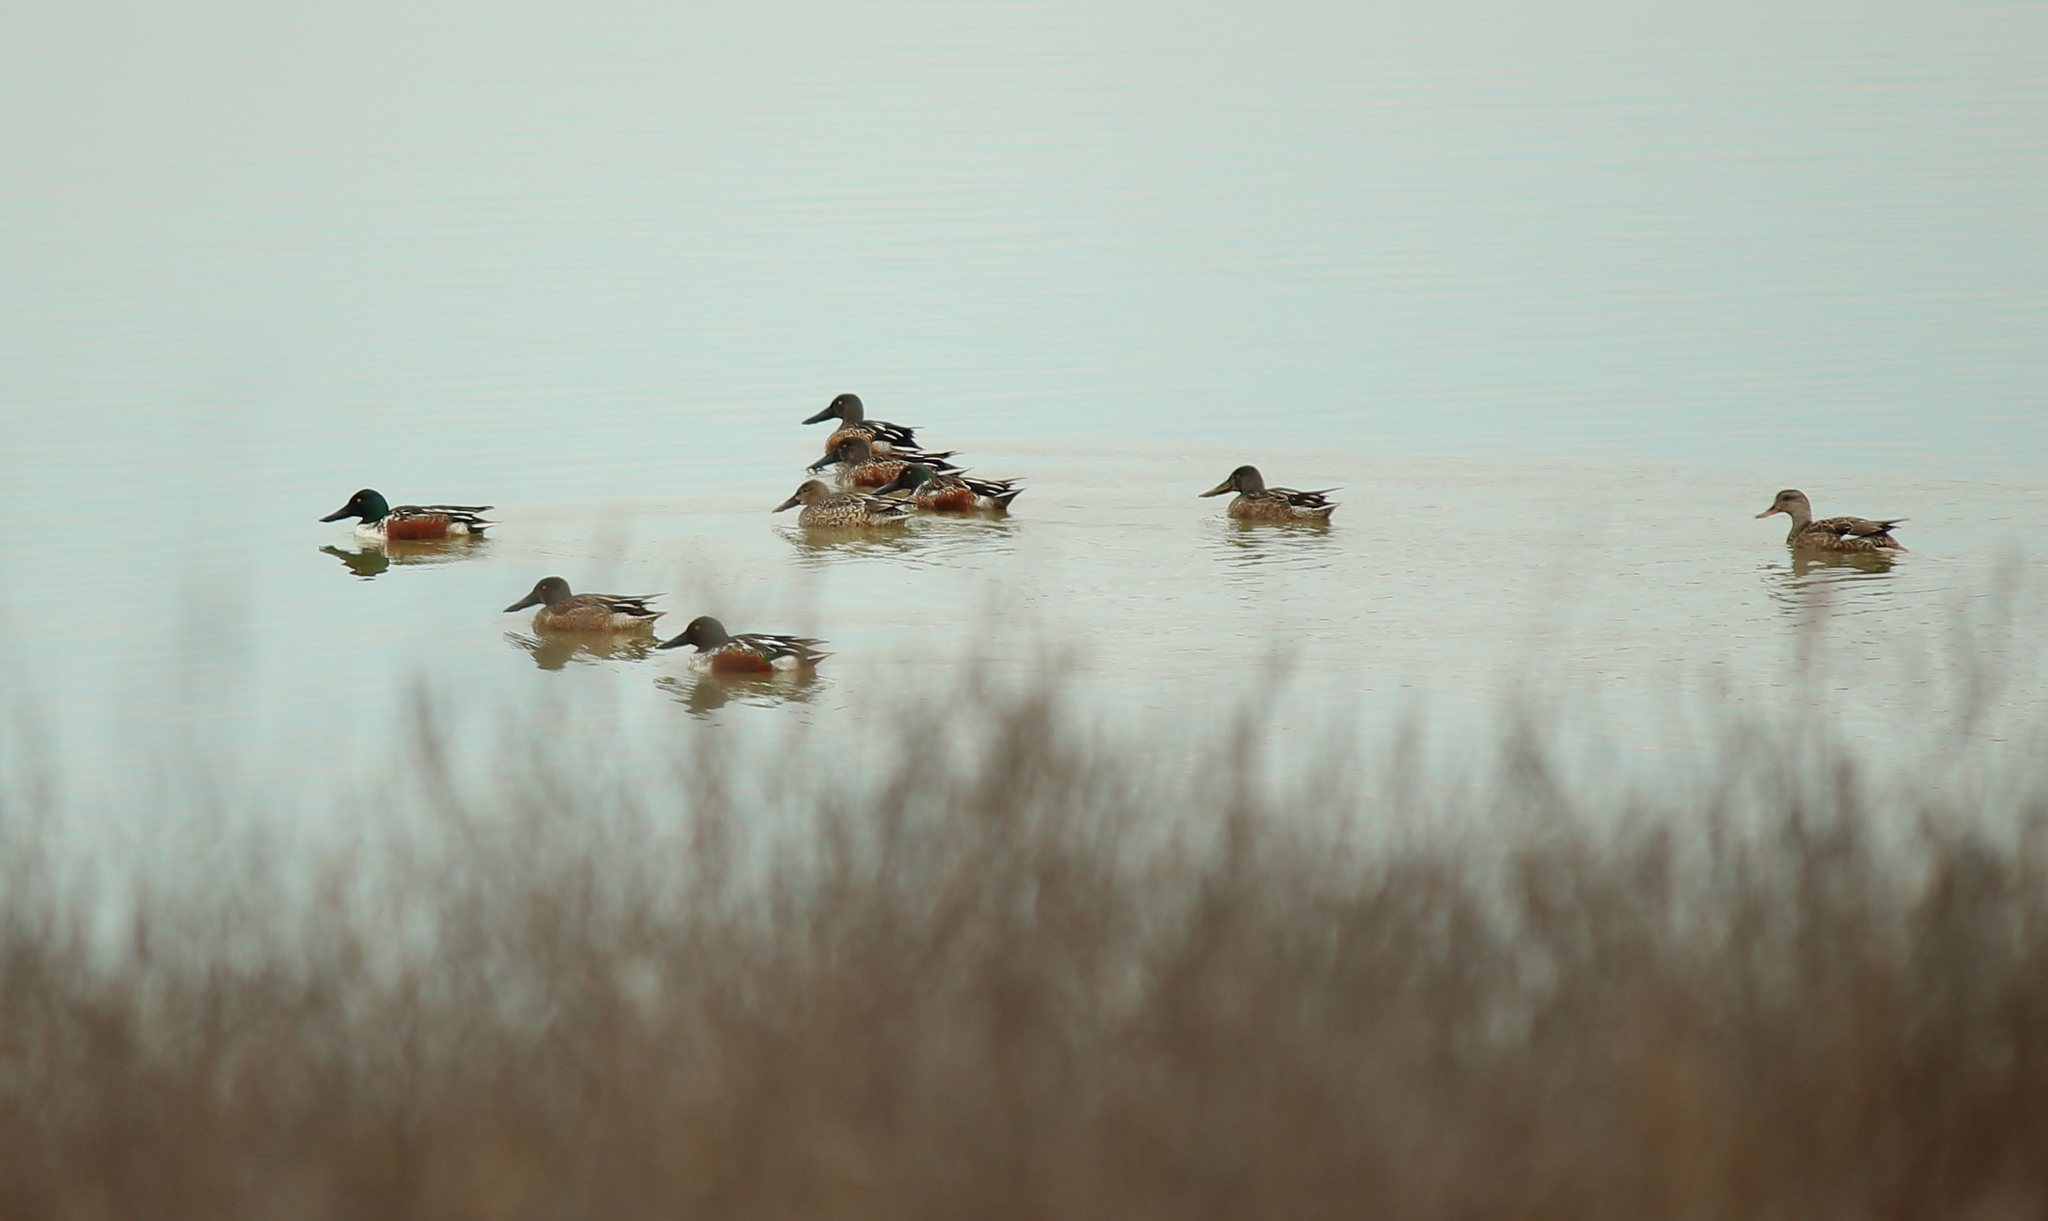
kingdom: Animalia
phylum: Chordata
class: Aves
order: Anseriformes
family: Anatidae
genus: Spatula
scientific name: Spatula clypeata
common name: Northern shoveler
